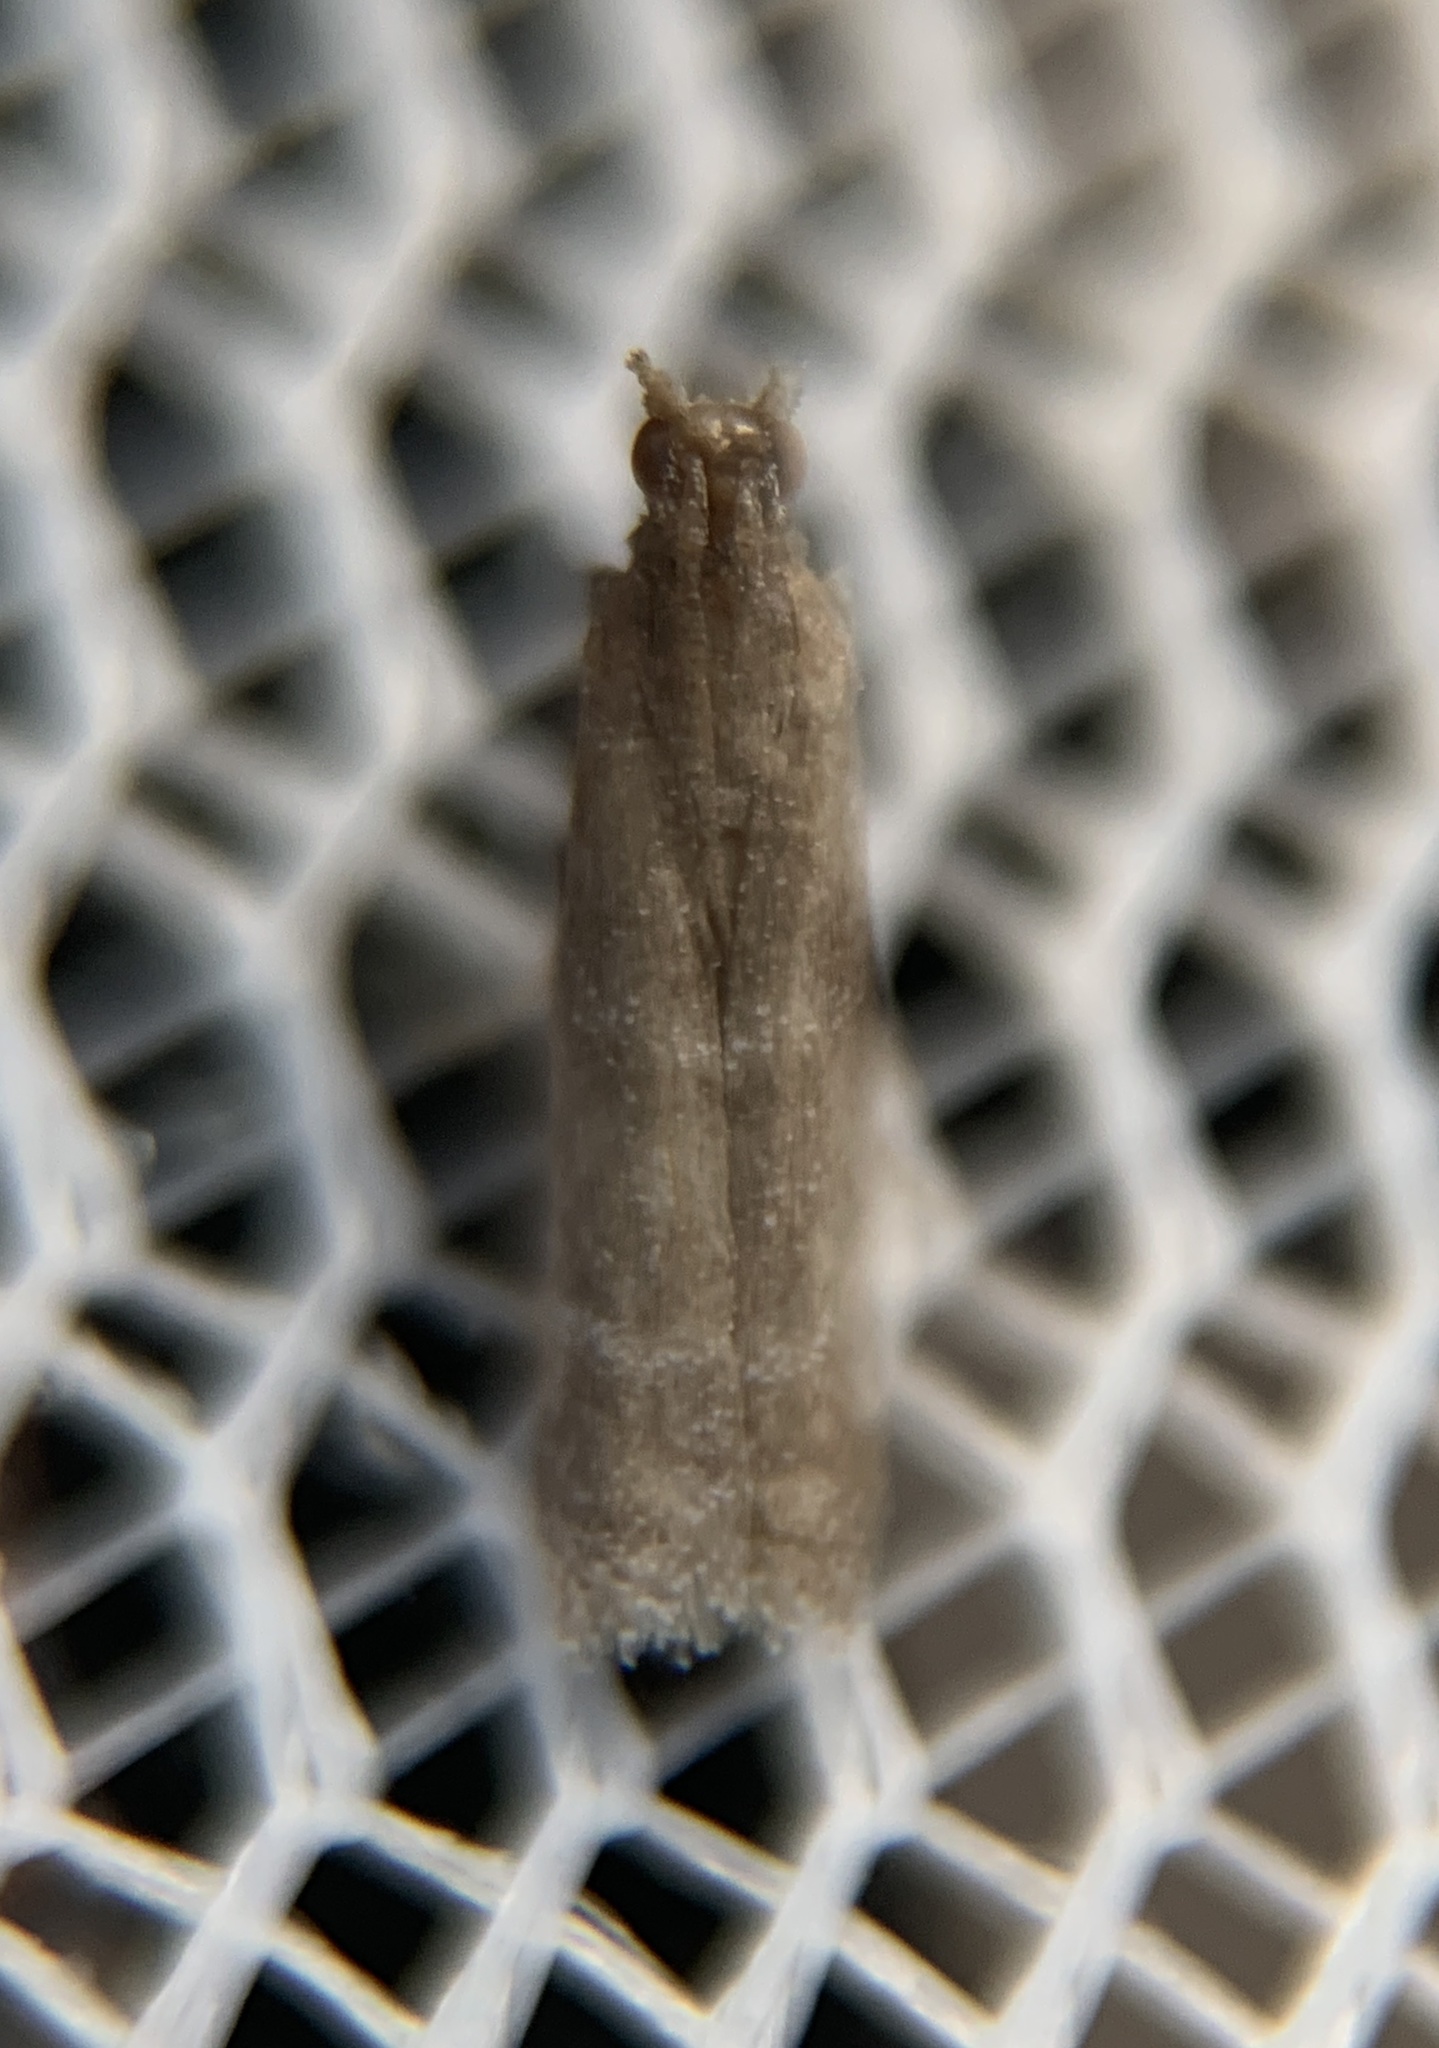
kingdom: Animalia
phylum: Arthropoda
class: Insecta
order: Lepidoptera
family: Pyralidae
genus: Cabnia
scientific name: Cabnia myronella
